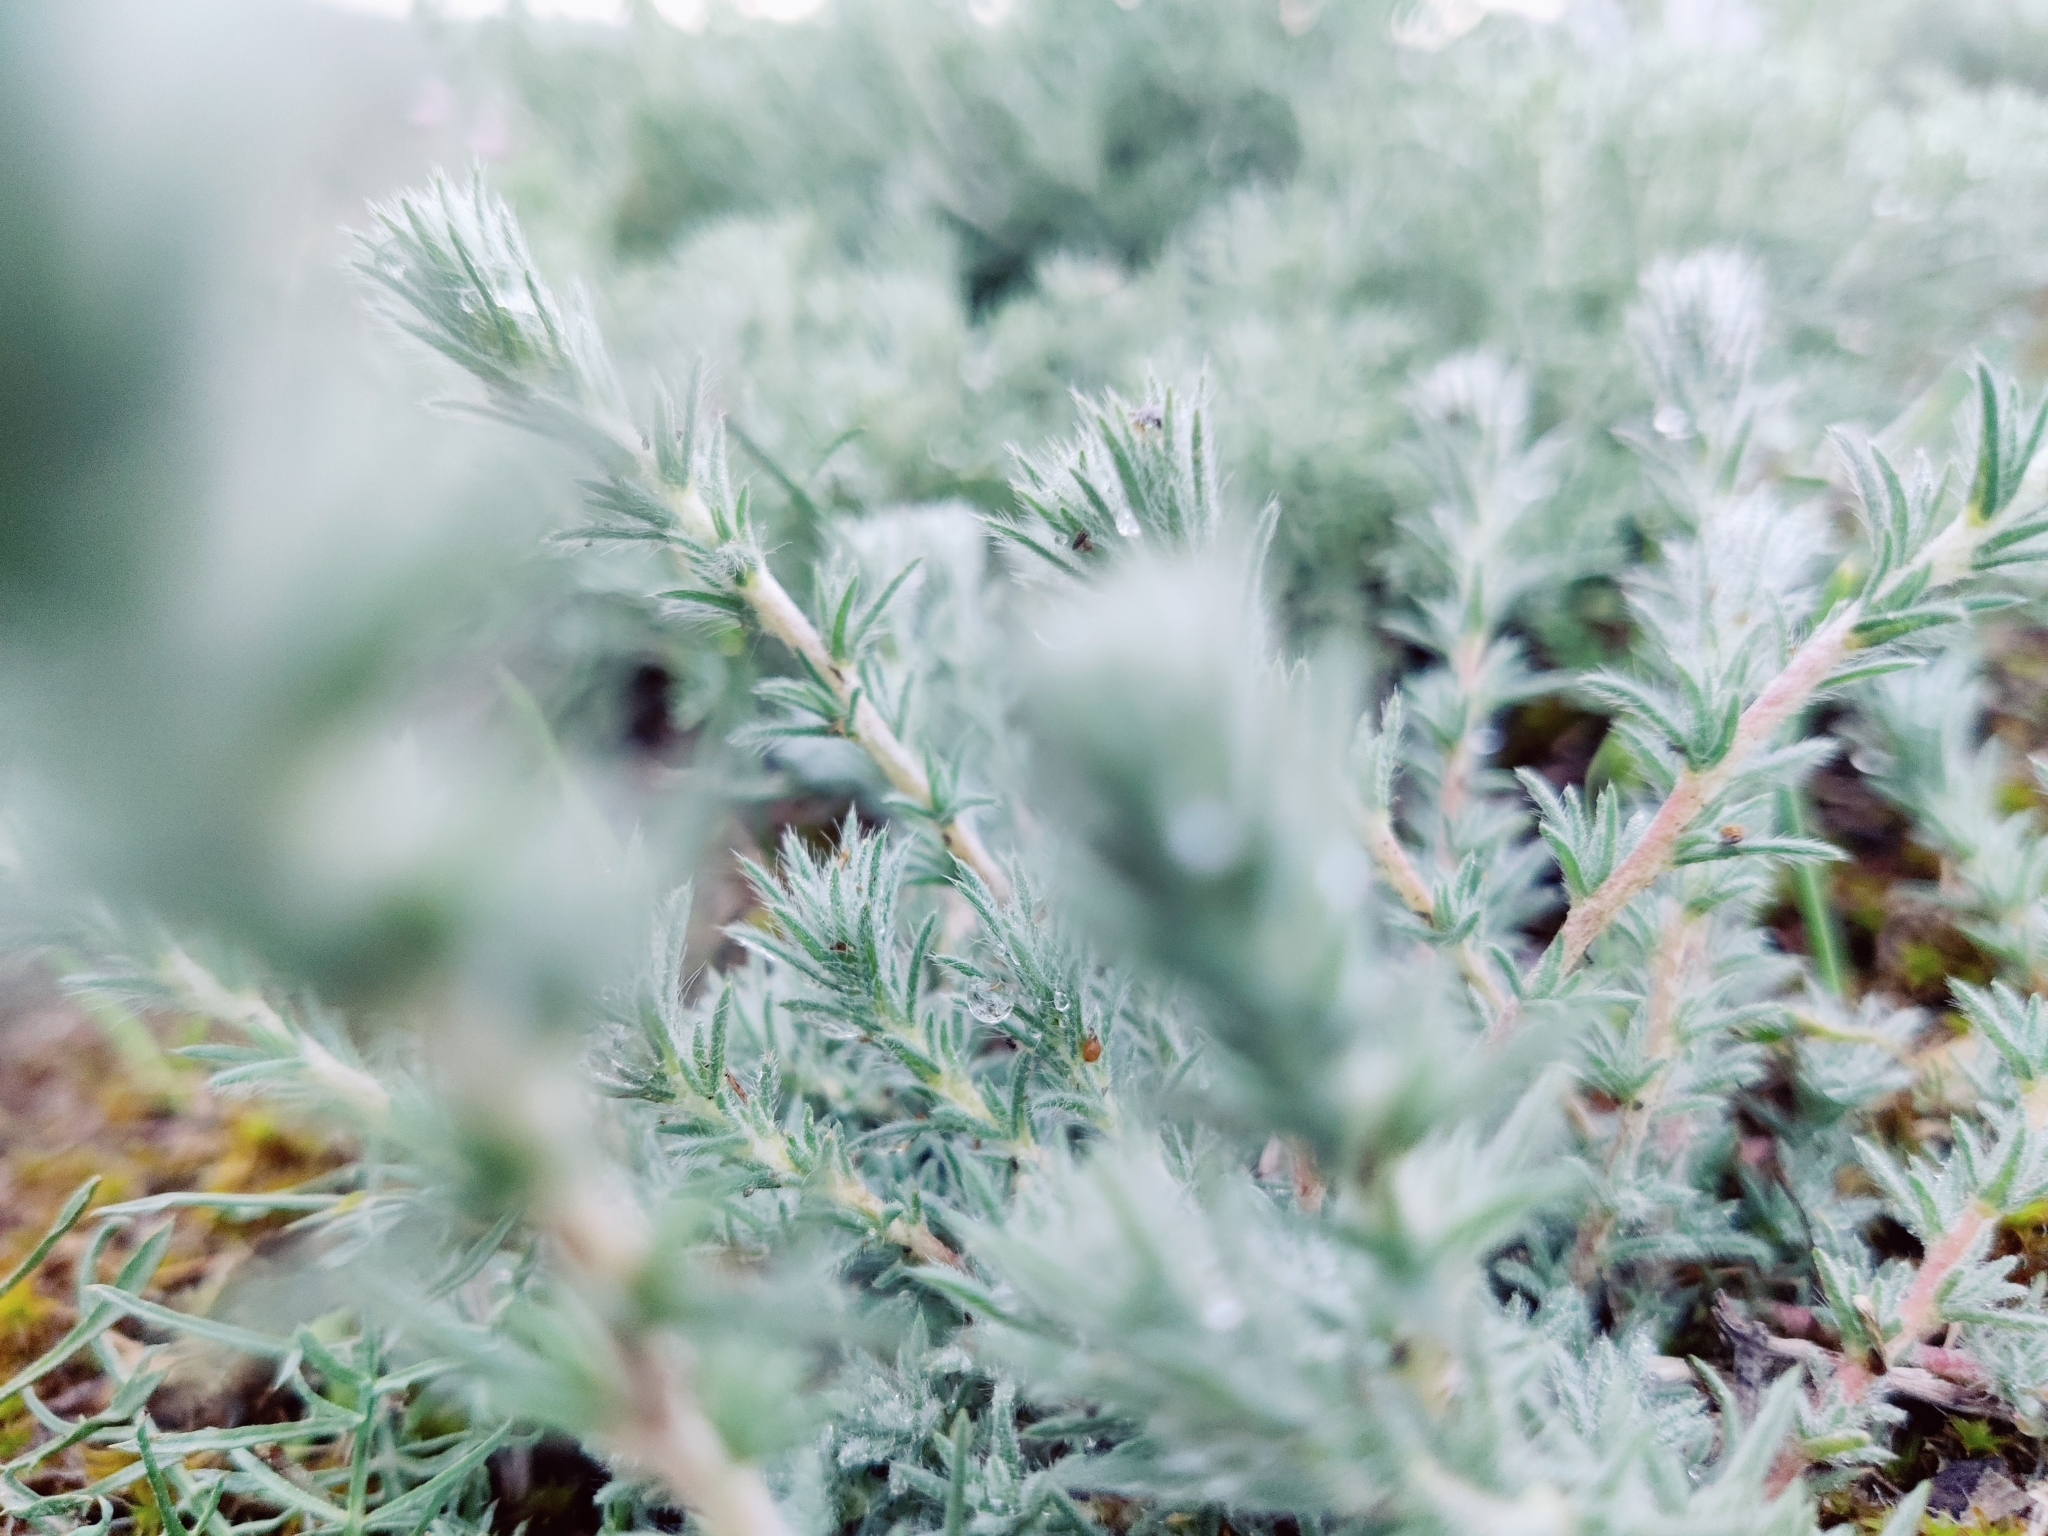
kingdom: Plantae
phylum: Tracheophyta
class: Magnoliopsida
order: Caryophyllales
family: Amaranthaceae
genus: Bassia
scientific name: Bassia prostrata
